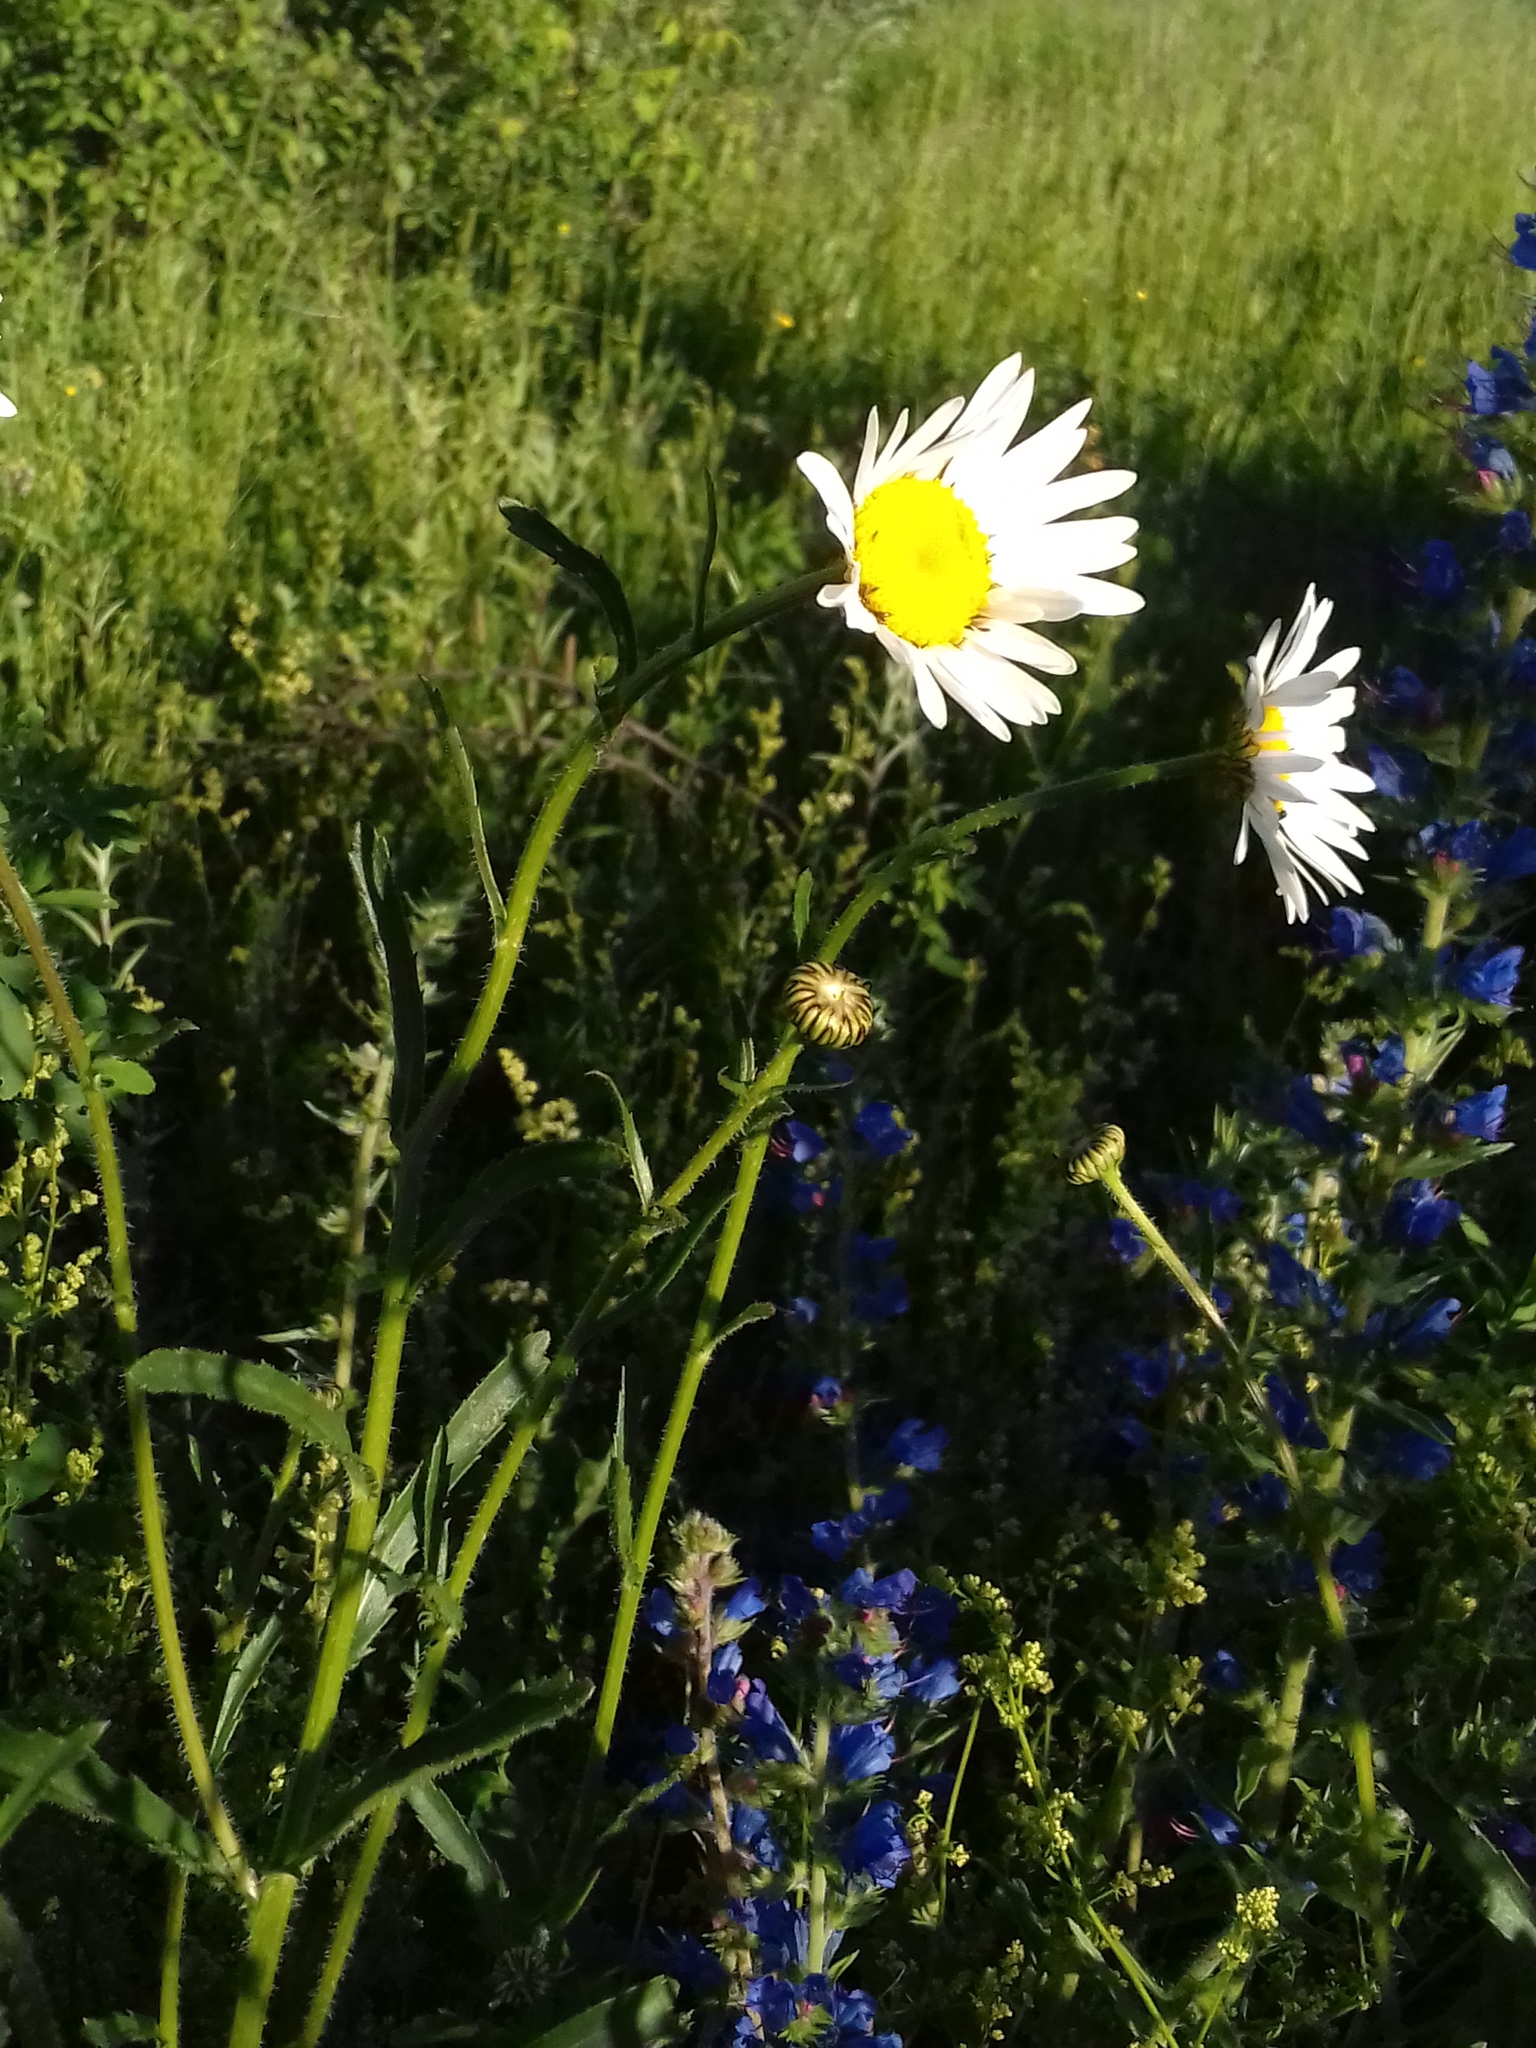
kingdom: Plantae
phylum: Tracheophyta
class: Magnoliopsida
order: Asterales
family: Asteraceae
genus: Leucanthemum
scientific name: Leucanthemum vulgare
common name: Oxeye daisy
